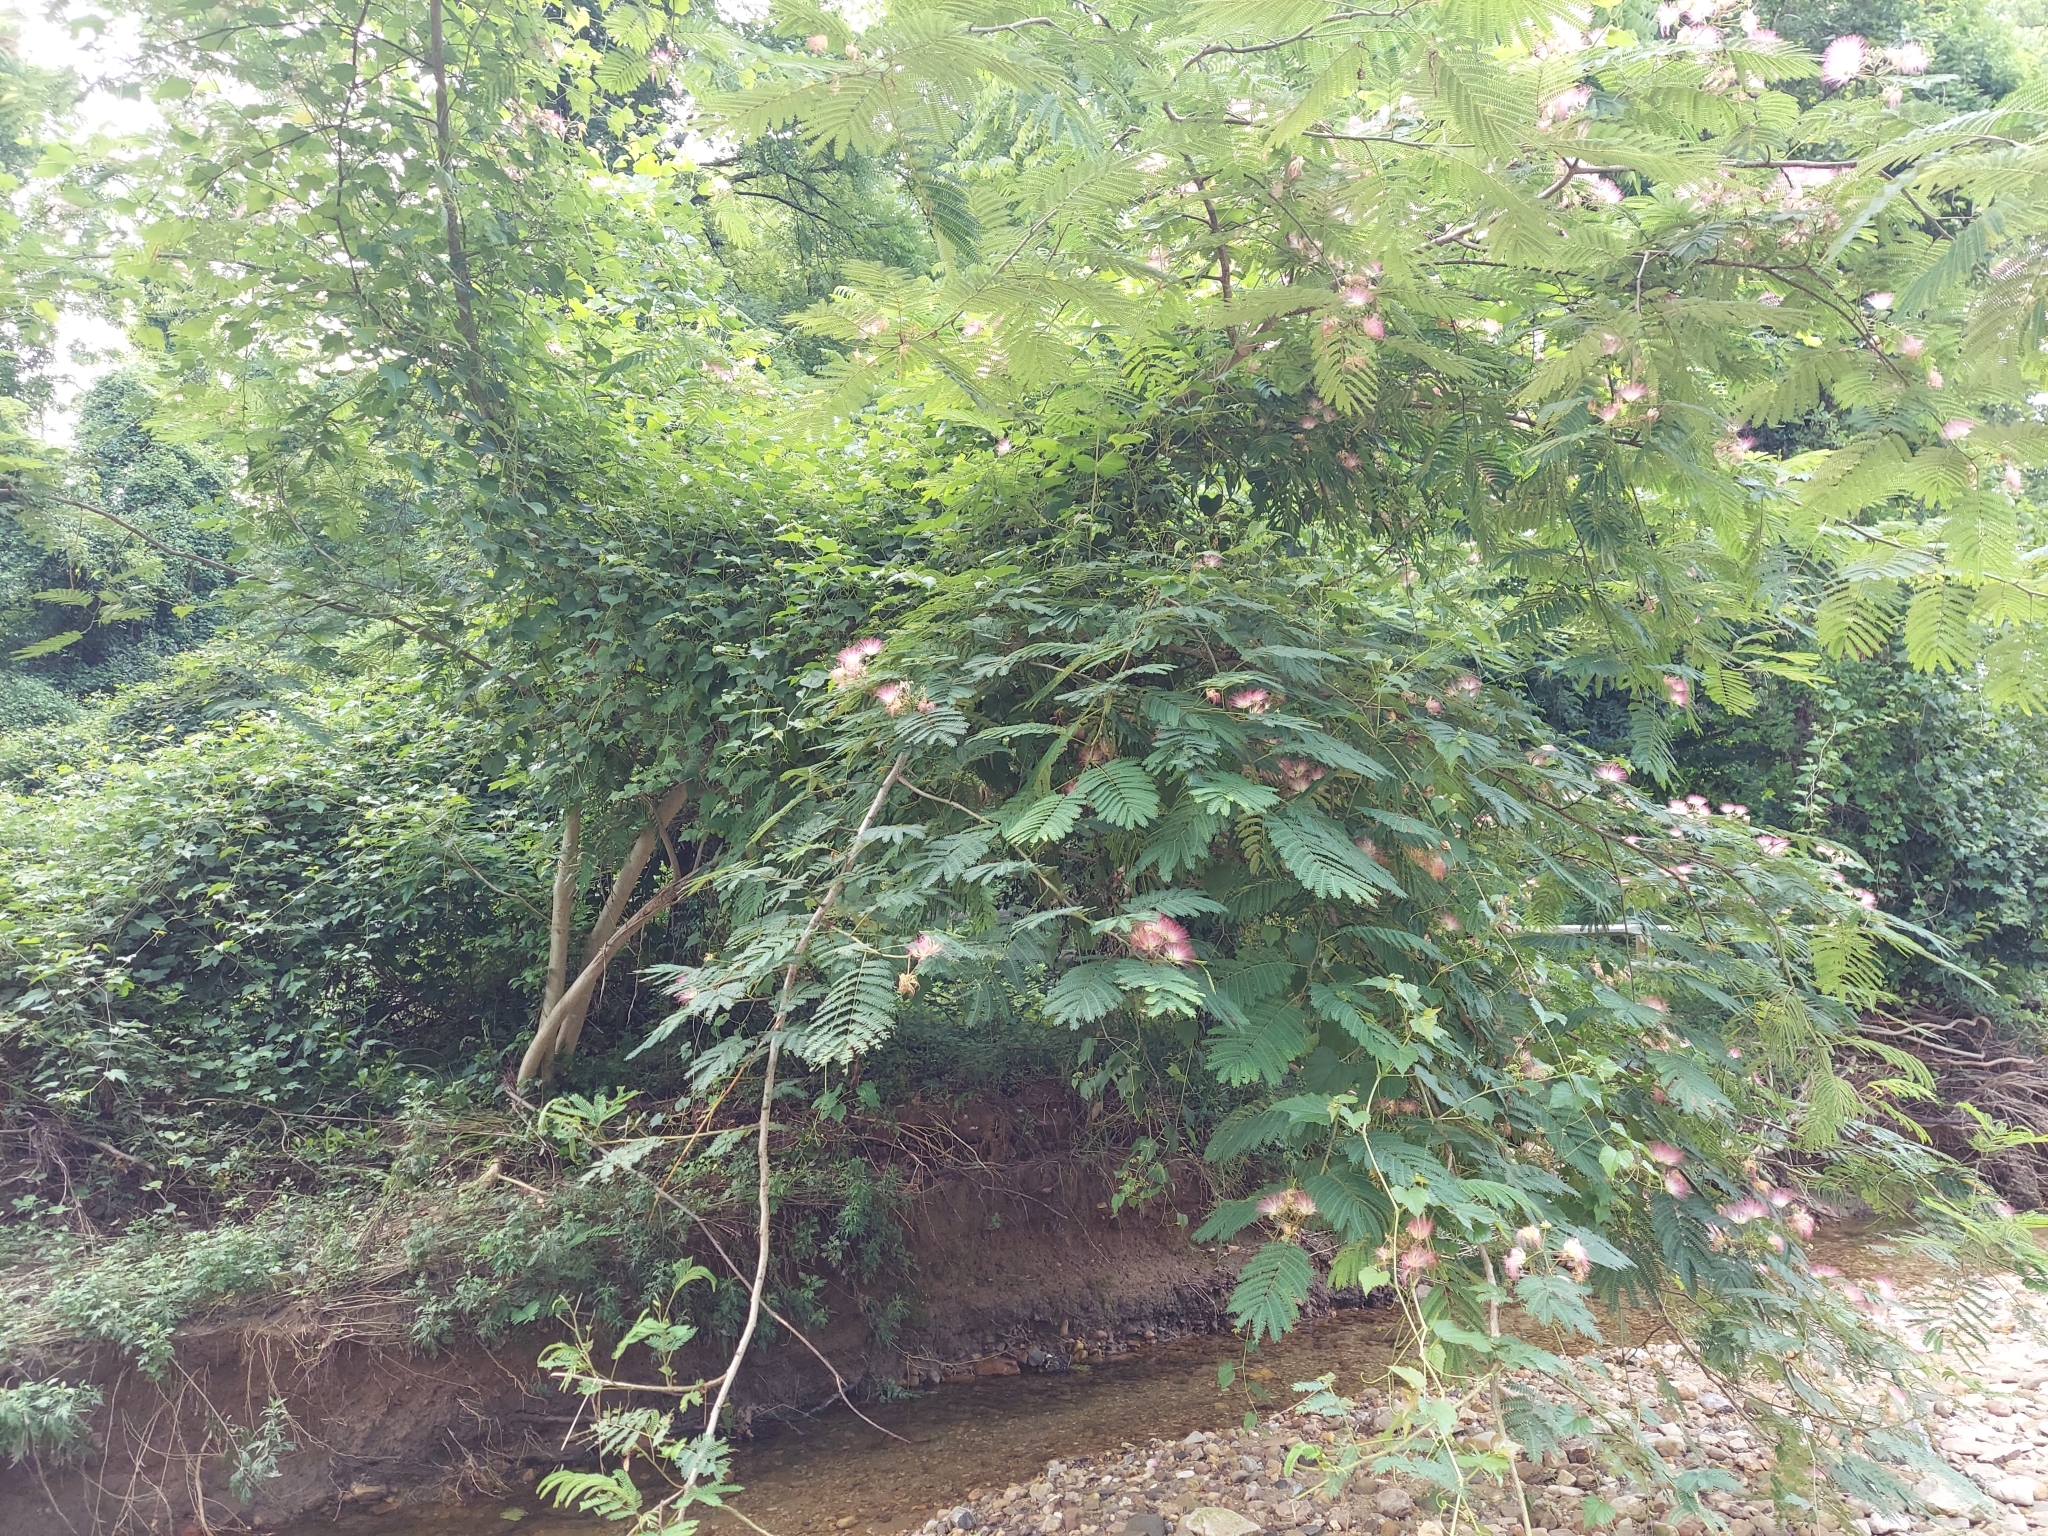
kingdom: Plantae
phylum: Tracheophyta
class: Magnoliopsida
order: Fabales
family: Fabaceae
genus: Albizia
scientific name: Albizia julibrissin
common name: Silktree
